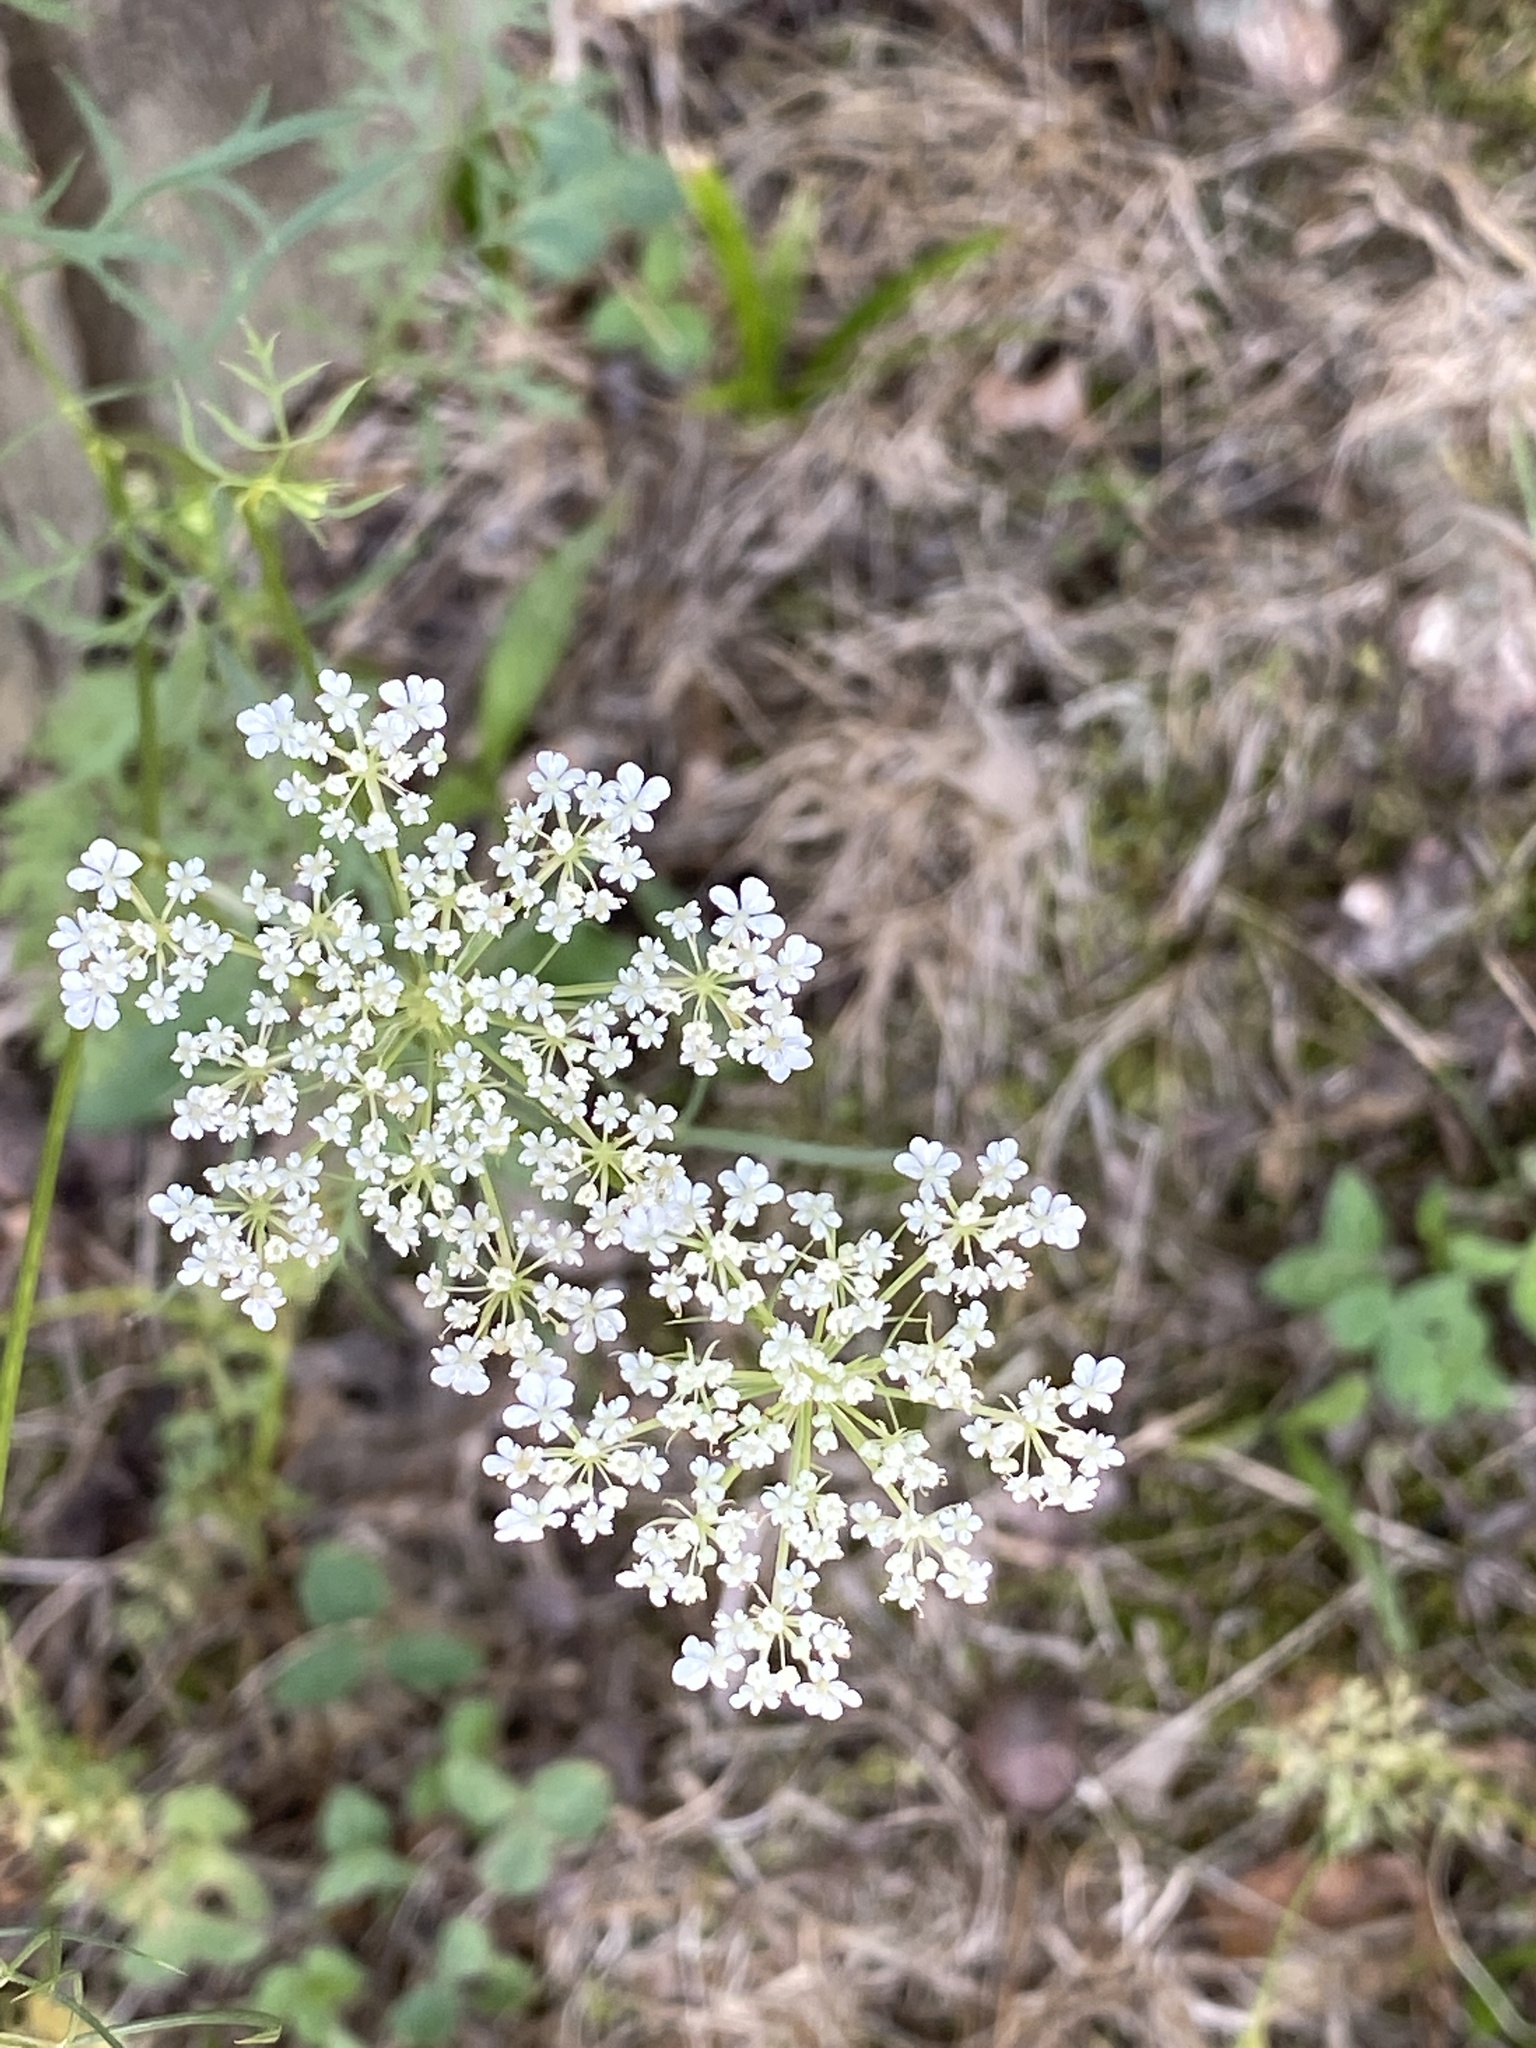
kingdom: Plantae
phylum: Tracheophyta
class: Magnoliopsida
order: Apiales
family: Apiaceae
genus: Daucus
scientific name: Daucus carota
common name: Wild carrot
